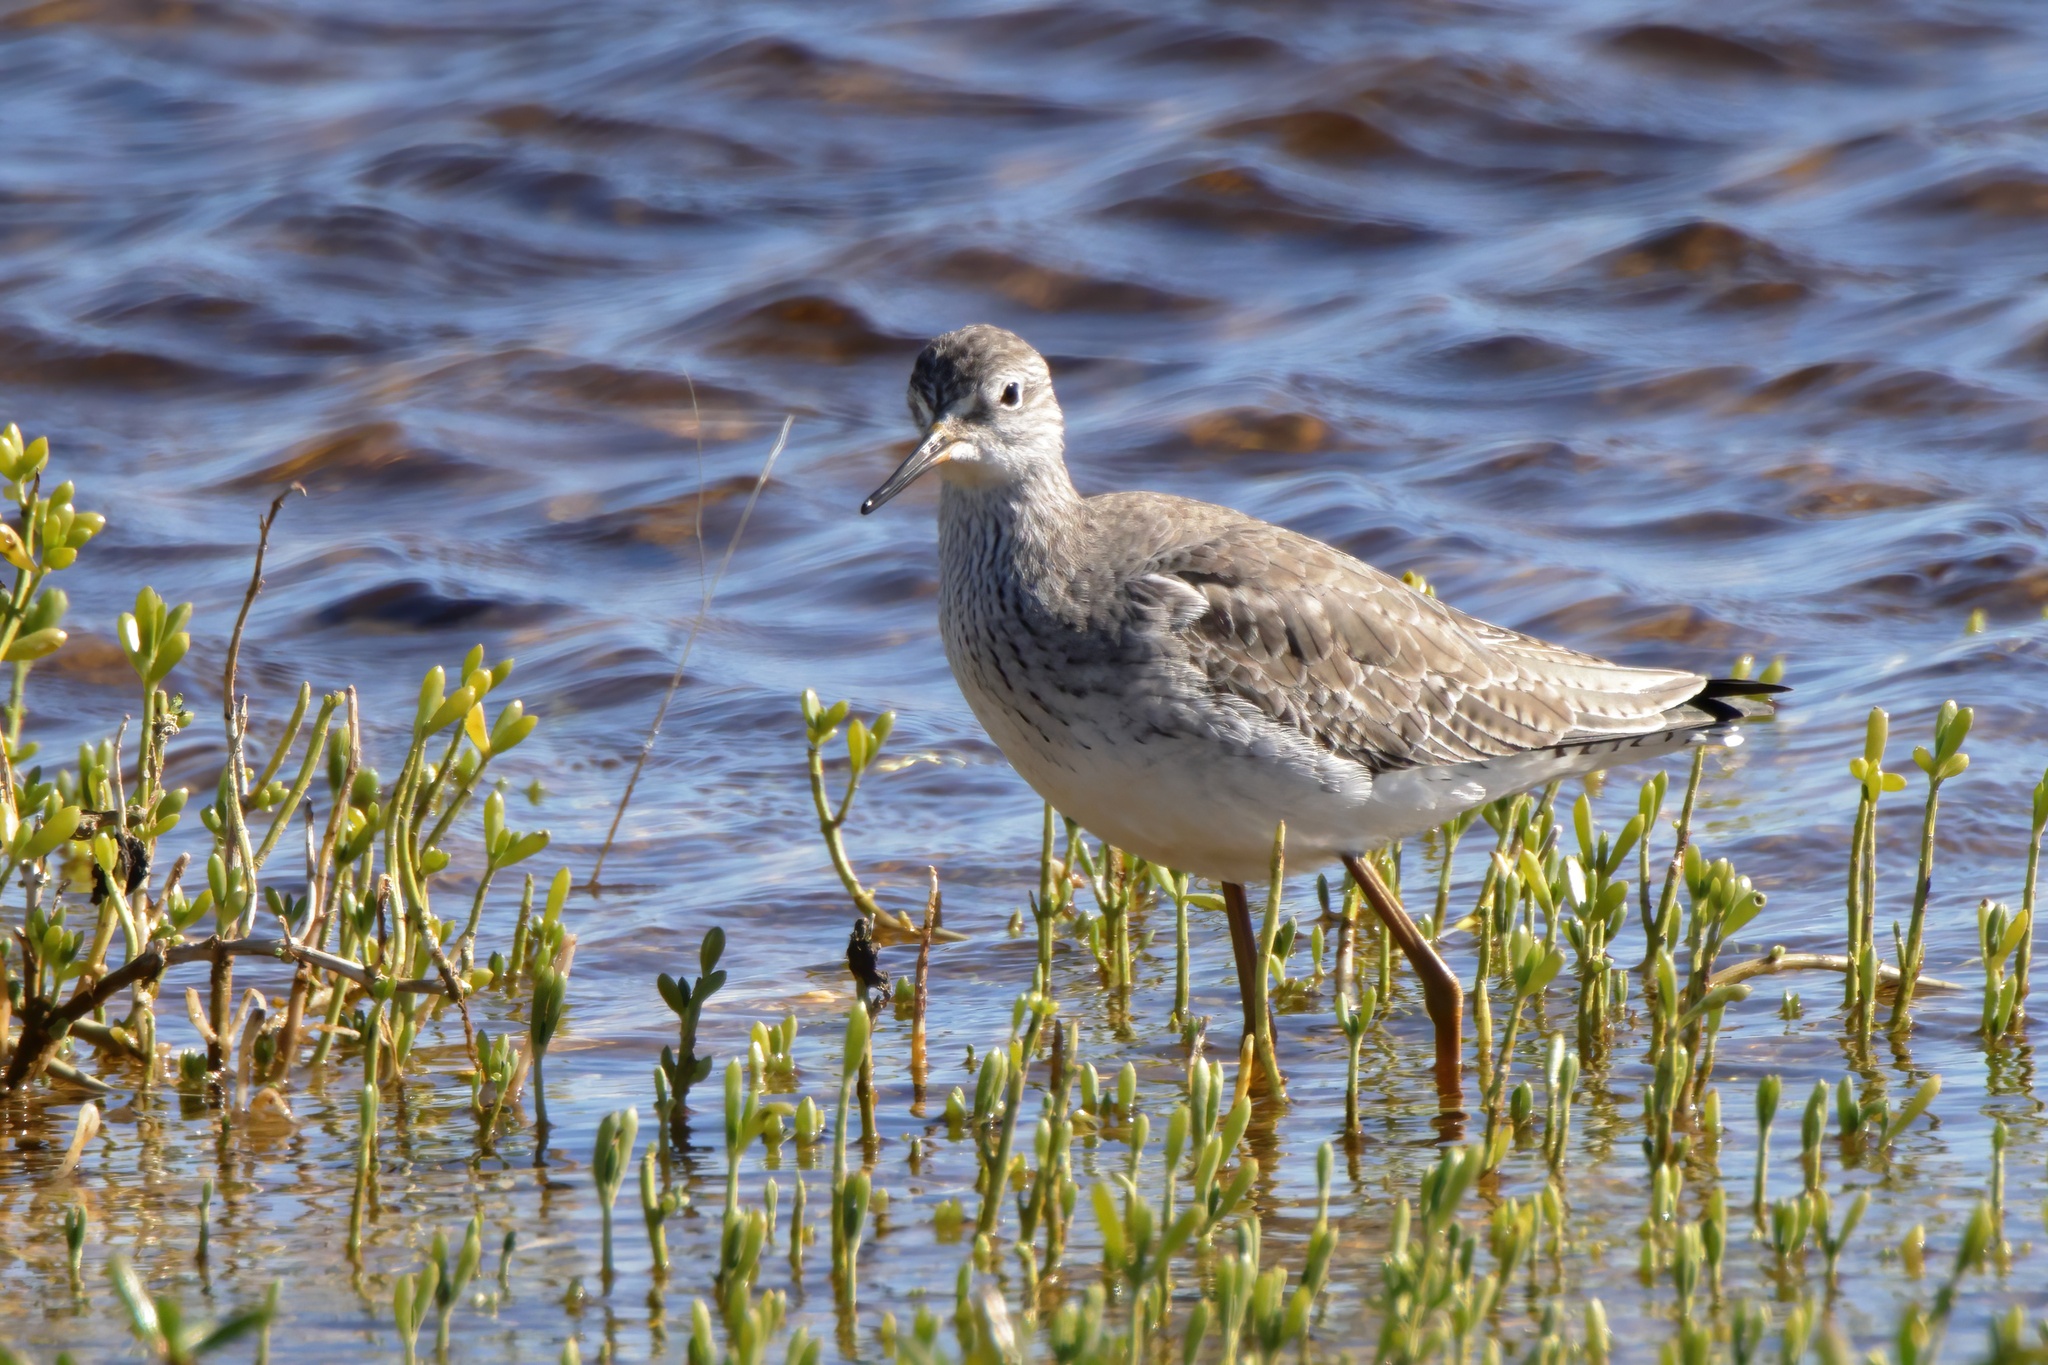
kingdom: Animalia
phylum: Chordata
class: Aves
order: Charadriiformes
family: Scolopacidae
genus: Tringa
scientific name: Tringa flavipes
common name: Lesser yellowlegs
